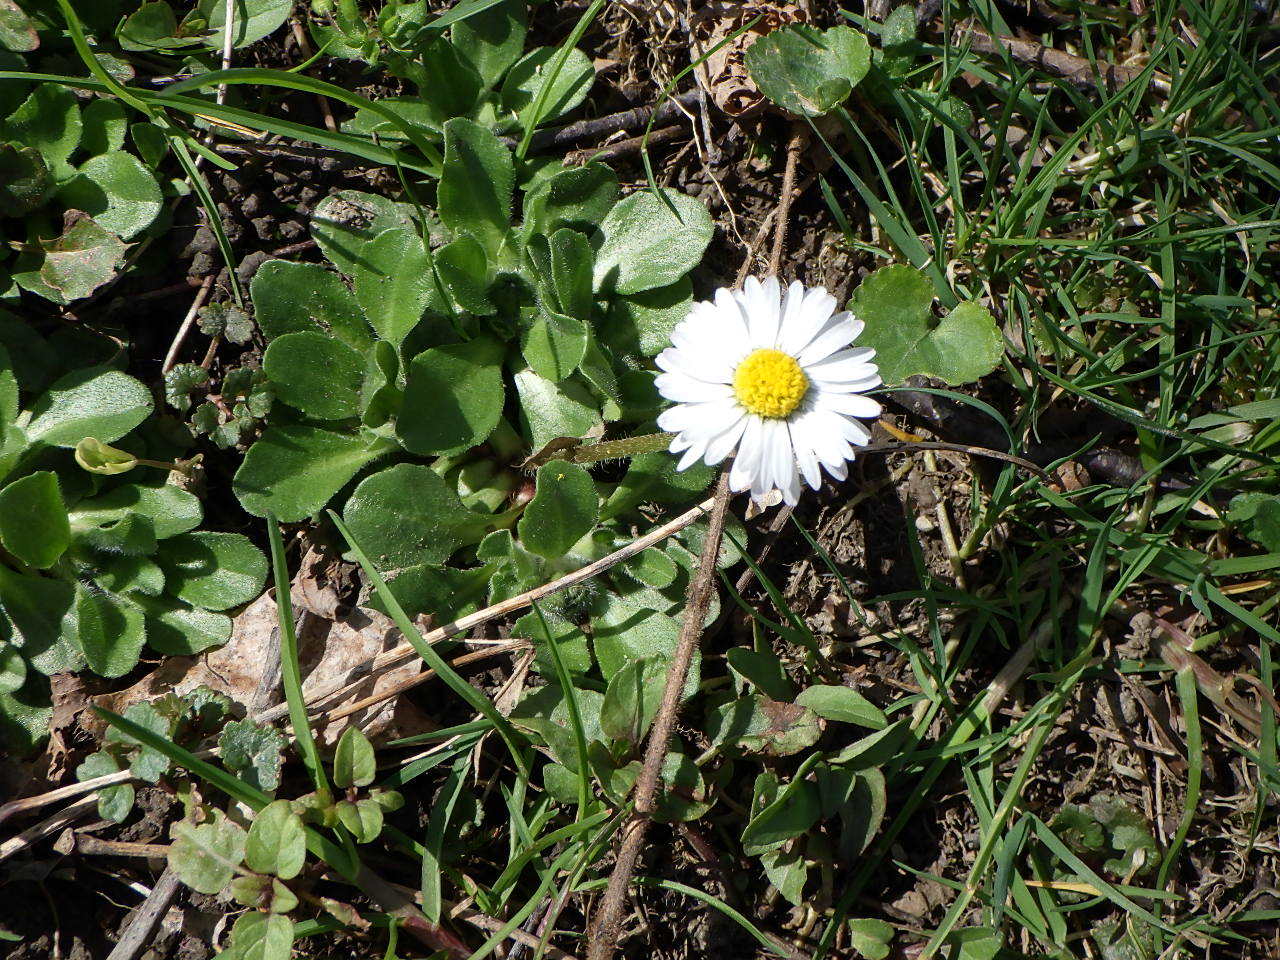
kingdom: Plantae
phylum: Tracheophyta
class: Magnoliopsida
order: Asterales
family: Asteraceae
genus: Bellis
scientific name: Bellis perennis
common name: Lawndaisy
